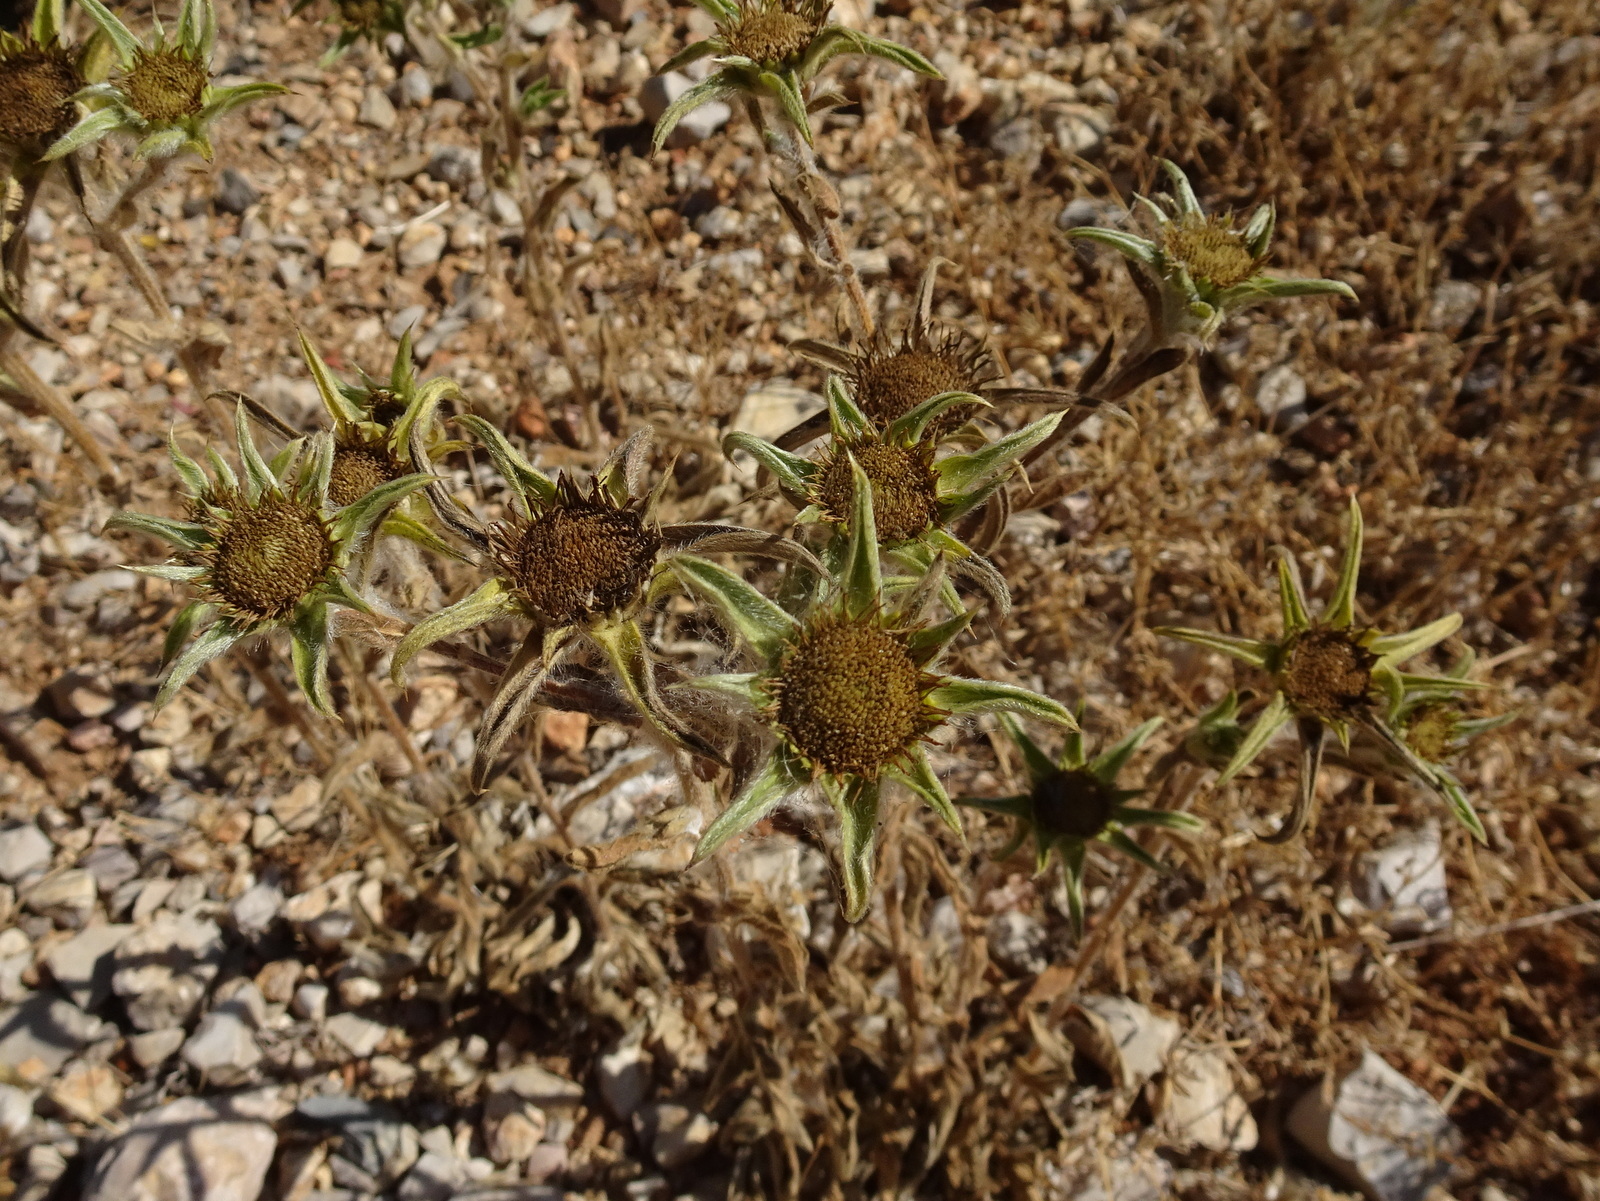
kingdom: Plantae
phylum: Tracheophyta
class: Magnoliopsida
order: Asterales
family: Asteraceae
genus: Pallenis
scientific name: Pallenis spinosa
